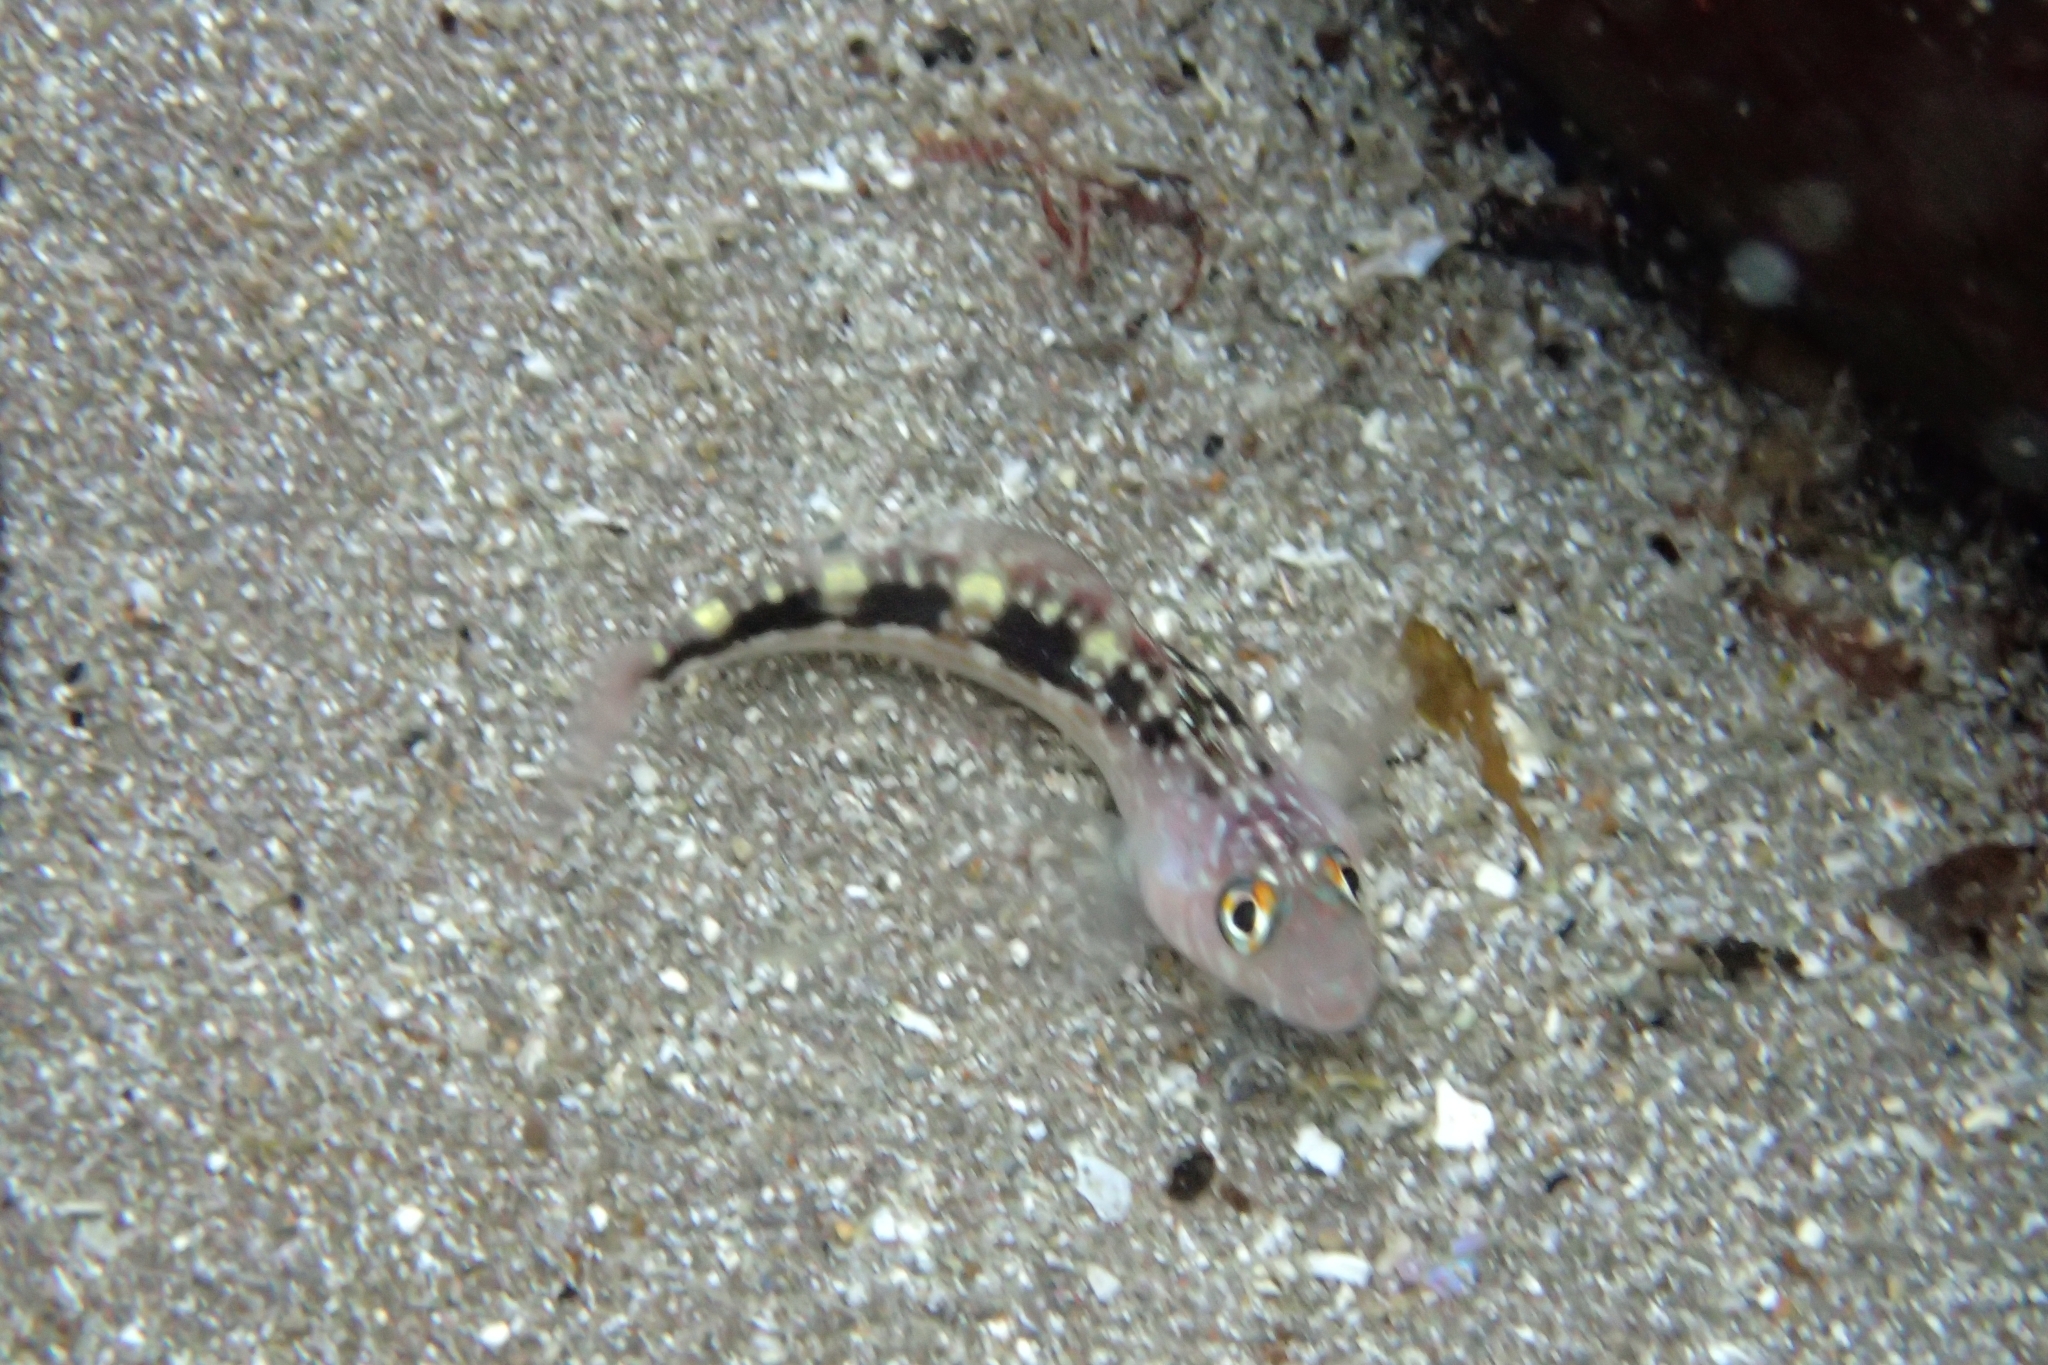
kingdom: Animalia
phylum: Chordata
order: Perciformes
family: Tripterygiidae
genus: Forsterygion
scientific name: Forsterygion varium
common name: Variable triplefin
